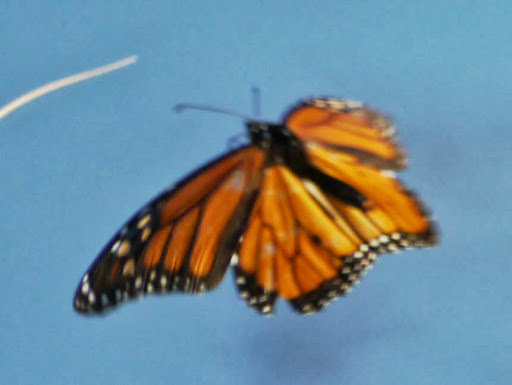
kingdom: Animalia
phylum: Arthropoda
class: Insecta
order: Lepidoptera
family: Nymphalidae
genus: Danaus
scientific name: Danaus plexippus
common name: Monarch
